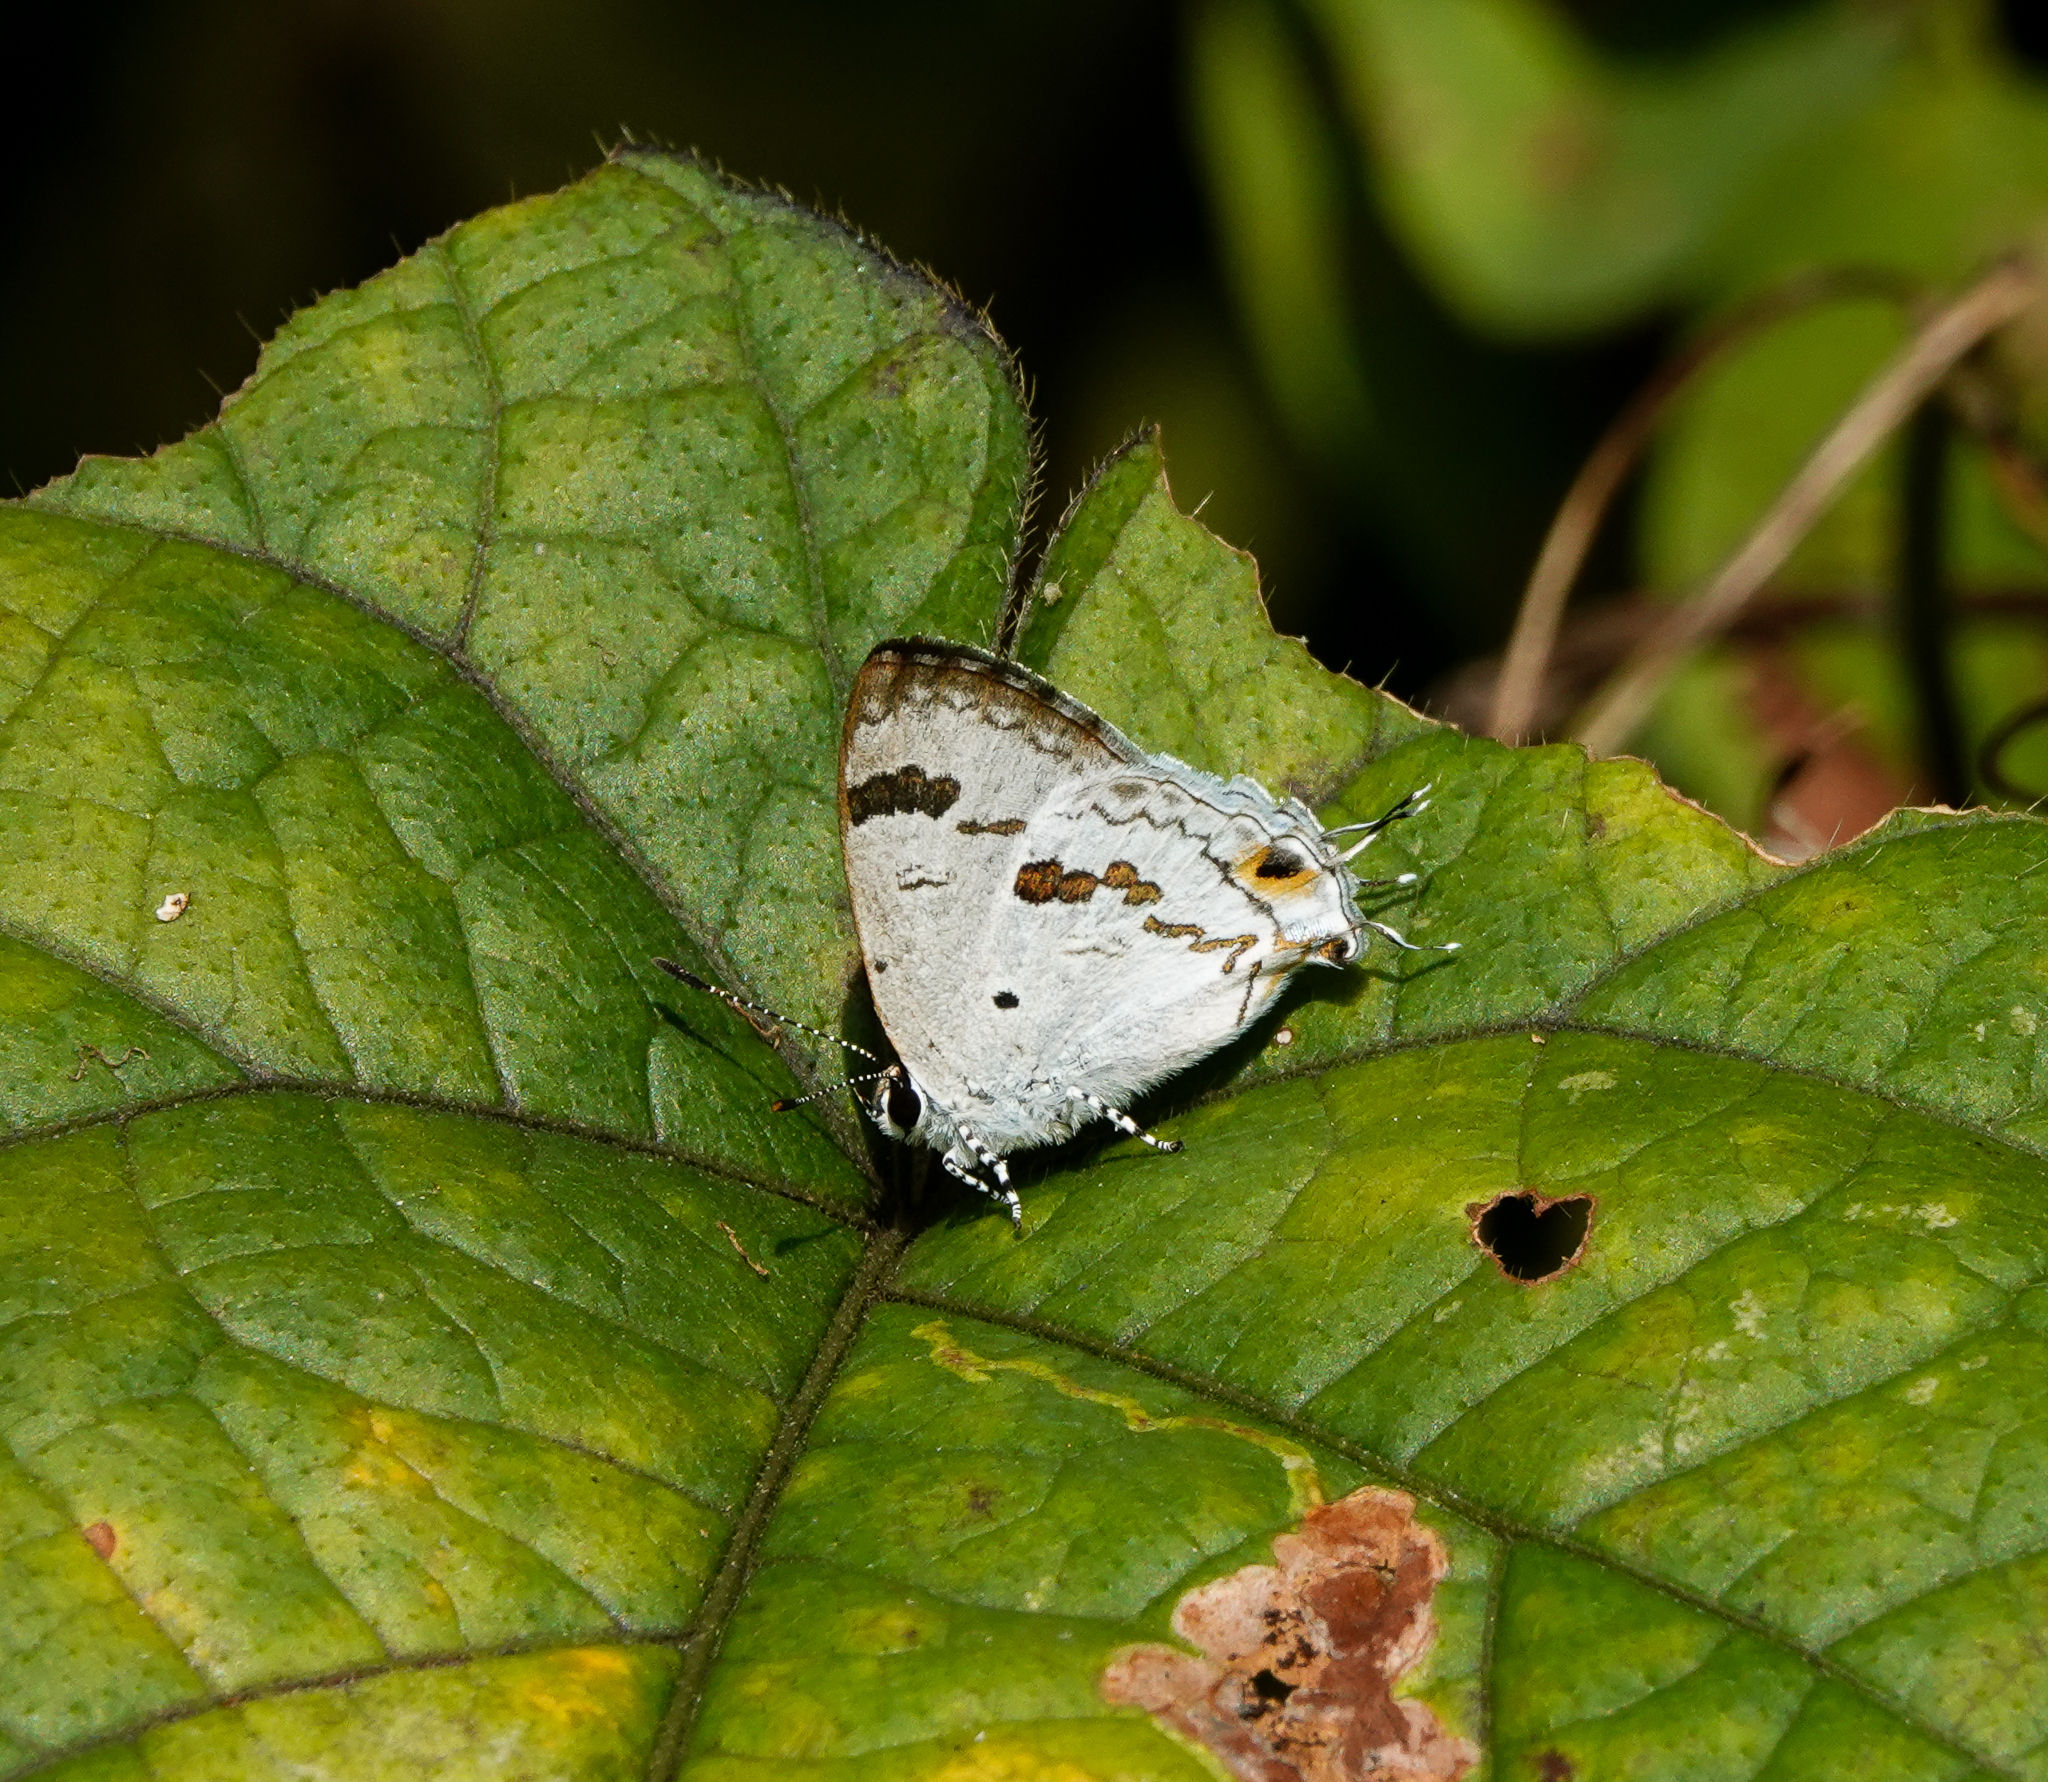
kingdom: Animalia
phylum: Arthropoda
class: Insecta
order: Lepidoptera
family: Lycaenidae
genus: Chliaria
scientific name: Chliaria othona
